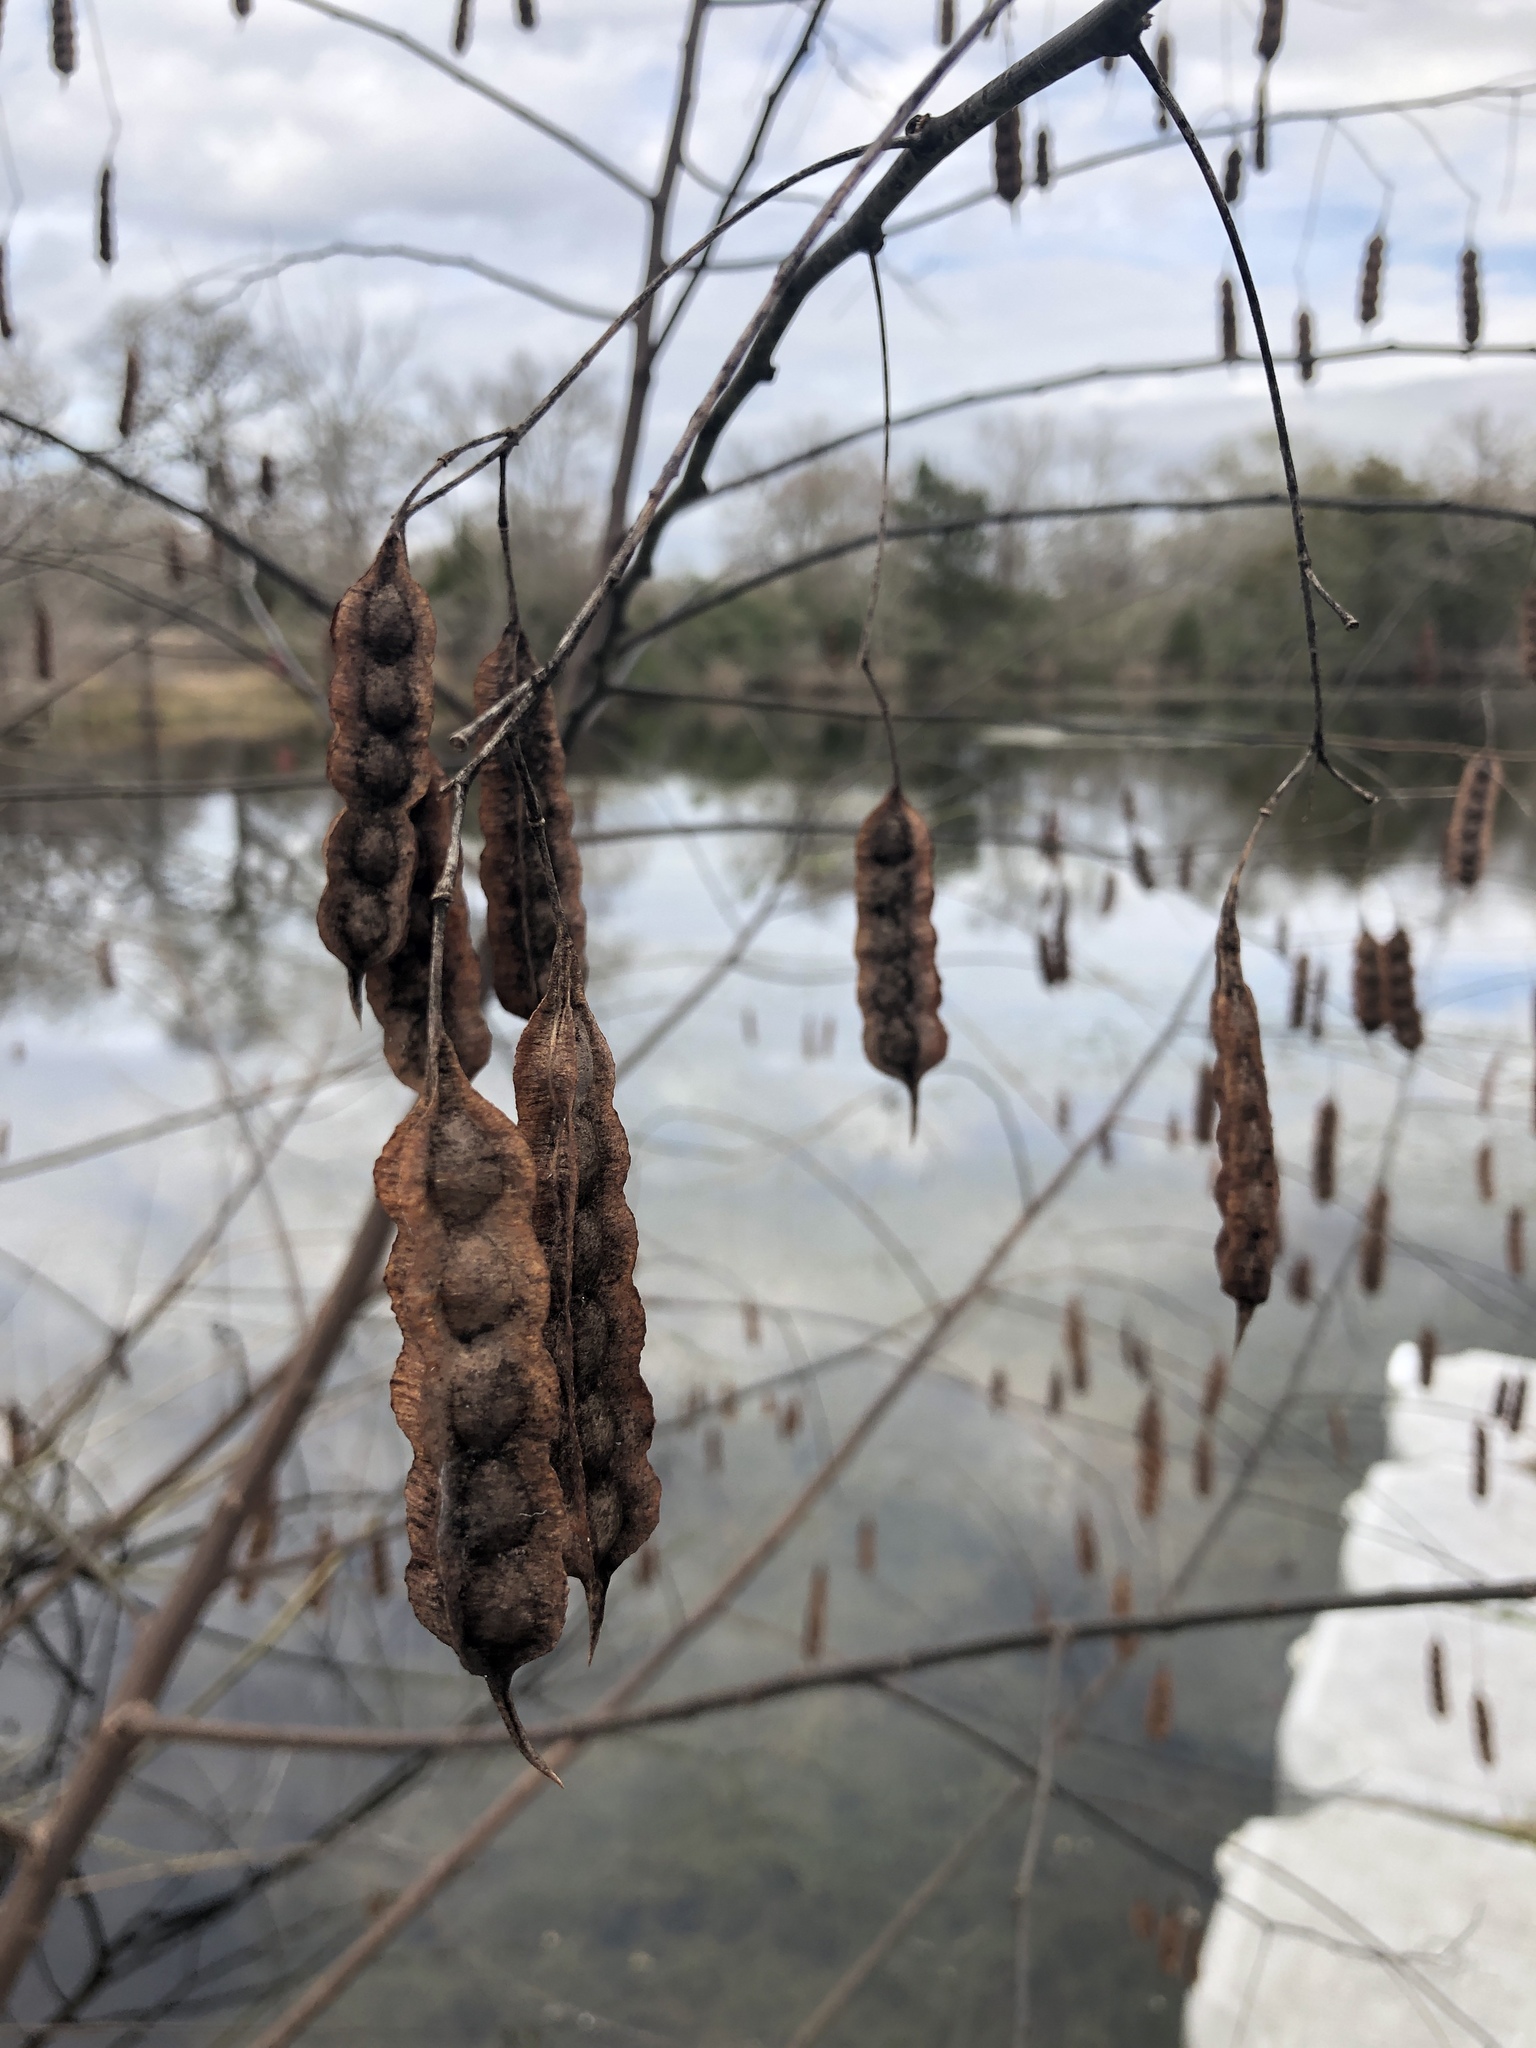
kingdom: Plantae
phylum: Tracheophyta
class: Magnoliopsida
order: Fabales
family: Fabaceae
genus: Sesbania
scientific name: Sesbania drummondii
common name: Poison-bean
